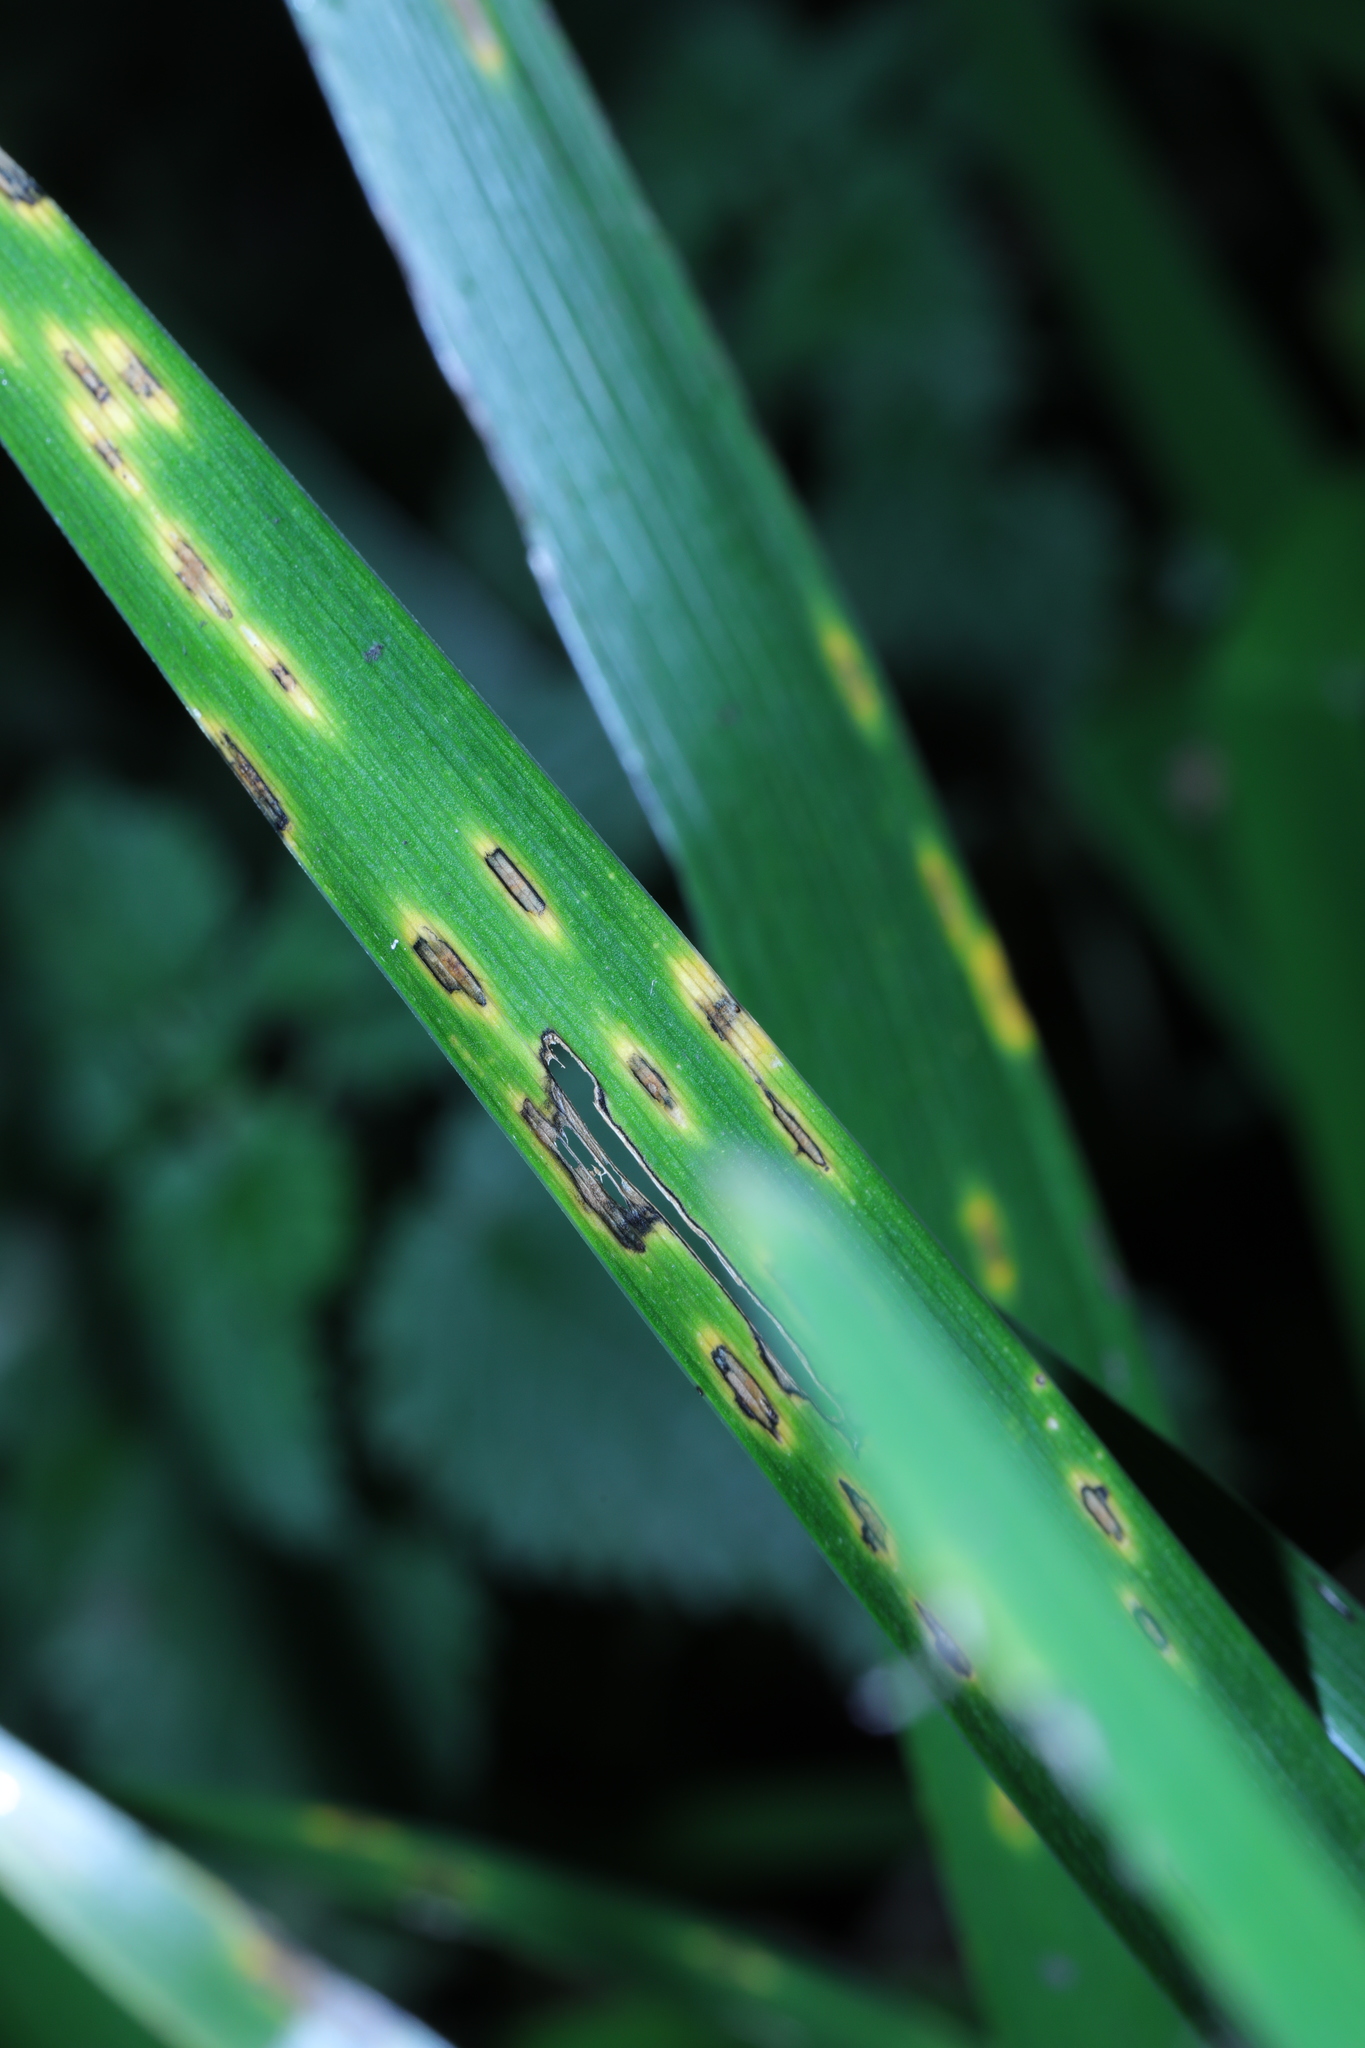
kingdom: Fungi
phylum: Basidiomycota
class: Pucciniomycetes
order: Pucciniales
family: Pucciniaceae
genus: Puccinia
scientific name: Puccinia iridis
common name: Iris rust
